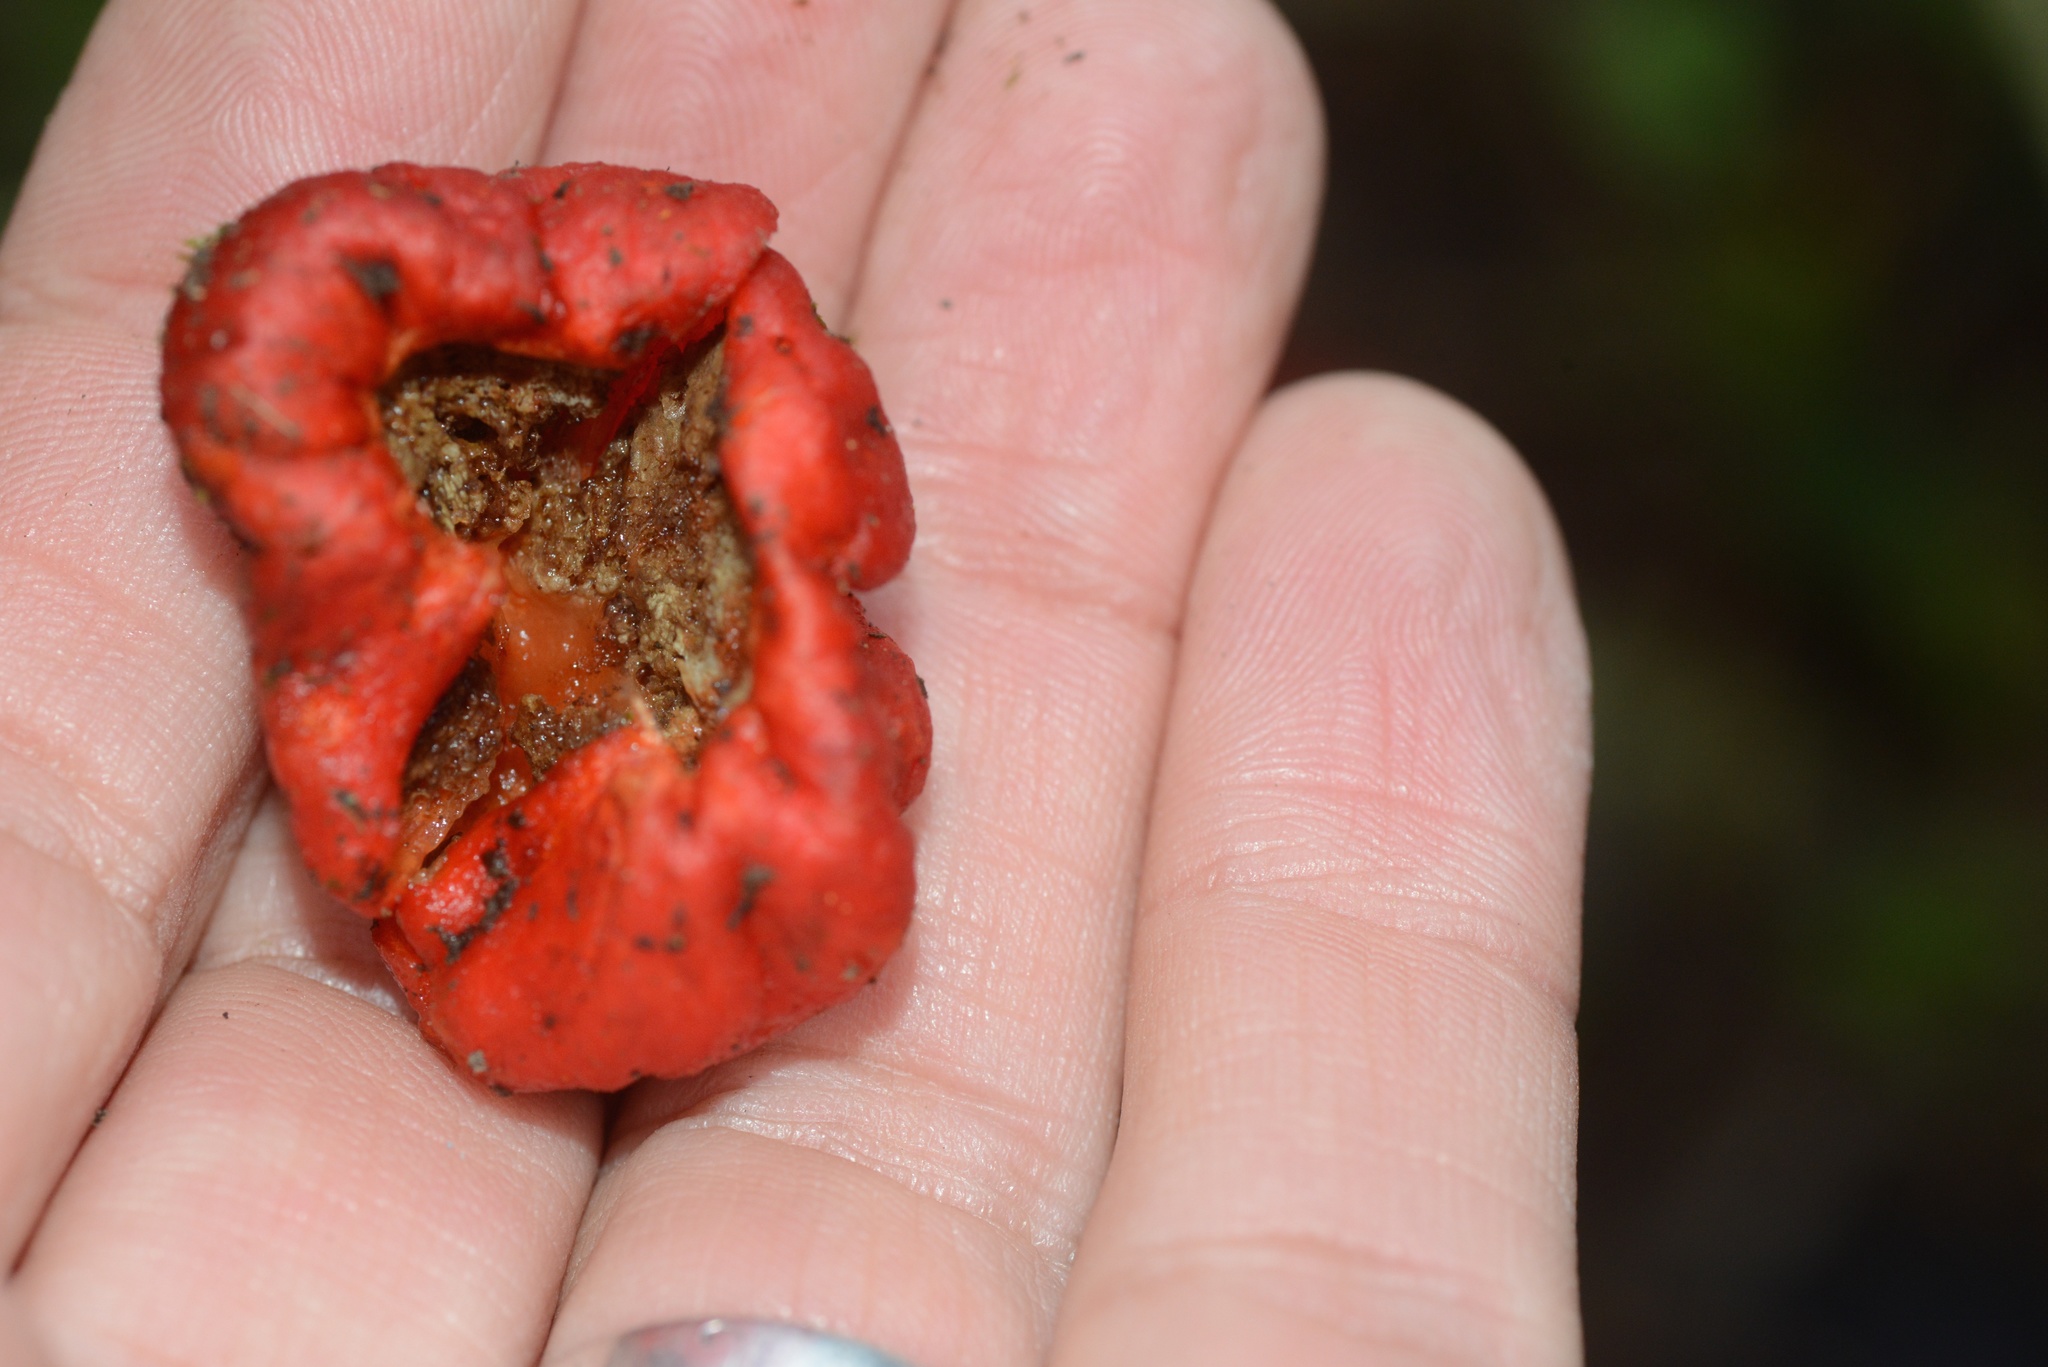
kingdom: Fungi
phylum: Basidiomycota
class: Agaricomycetes
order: Agaricales
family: Strophariaceae
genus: Leratiomyces
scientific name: Leratiomyces erythrocephalus
